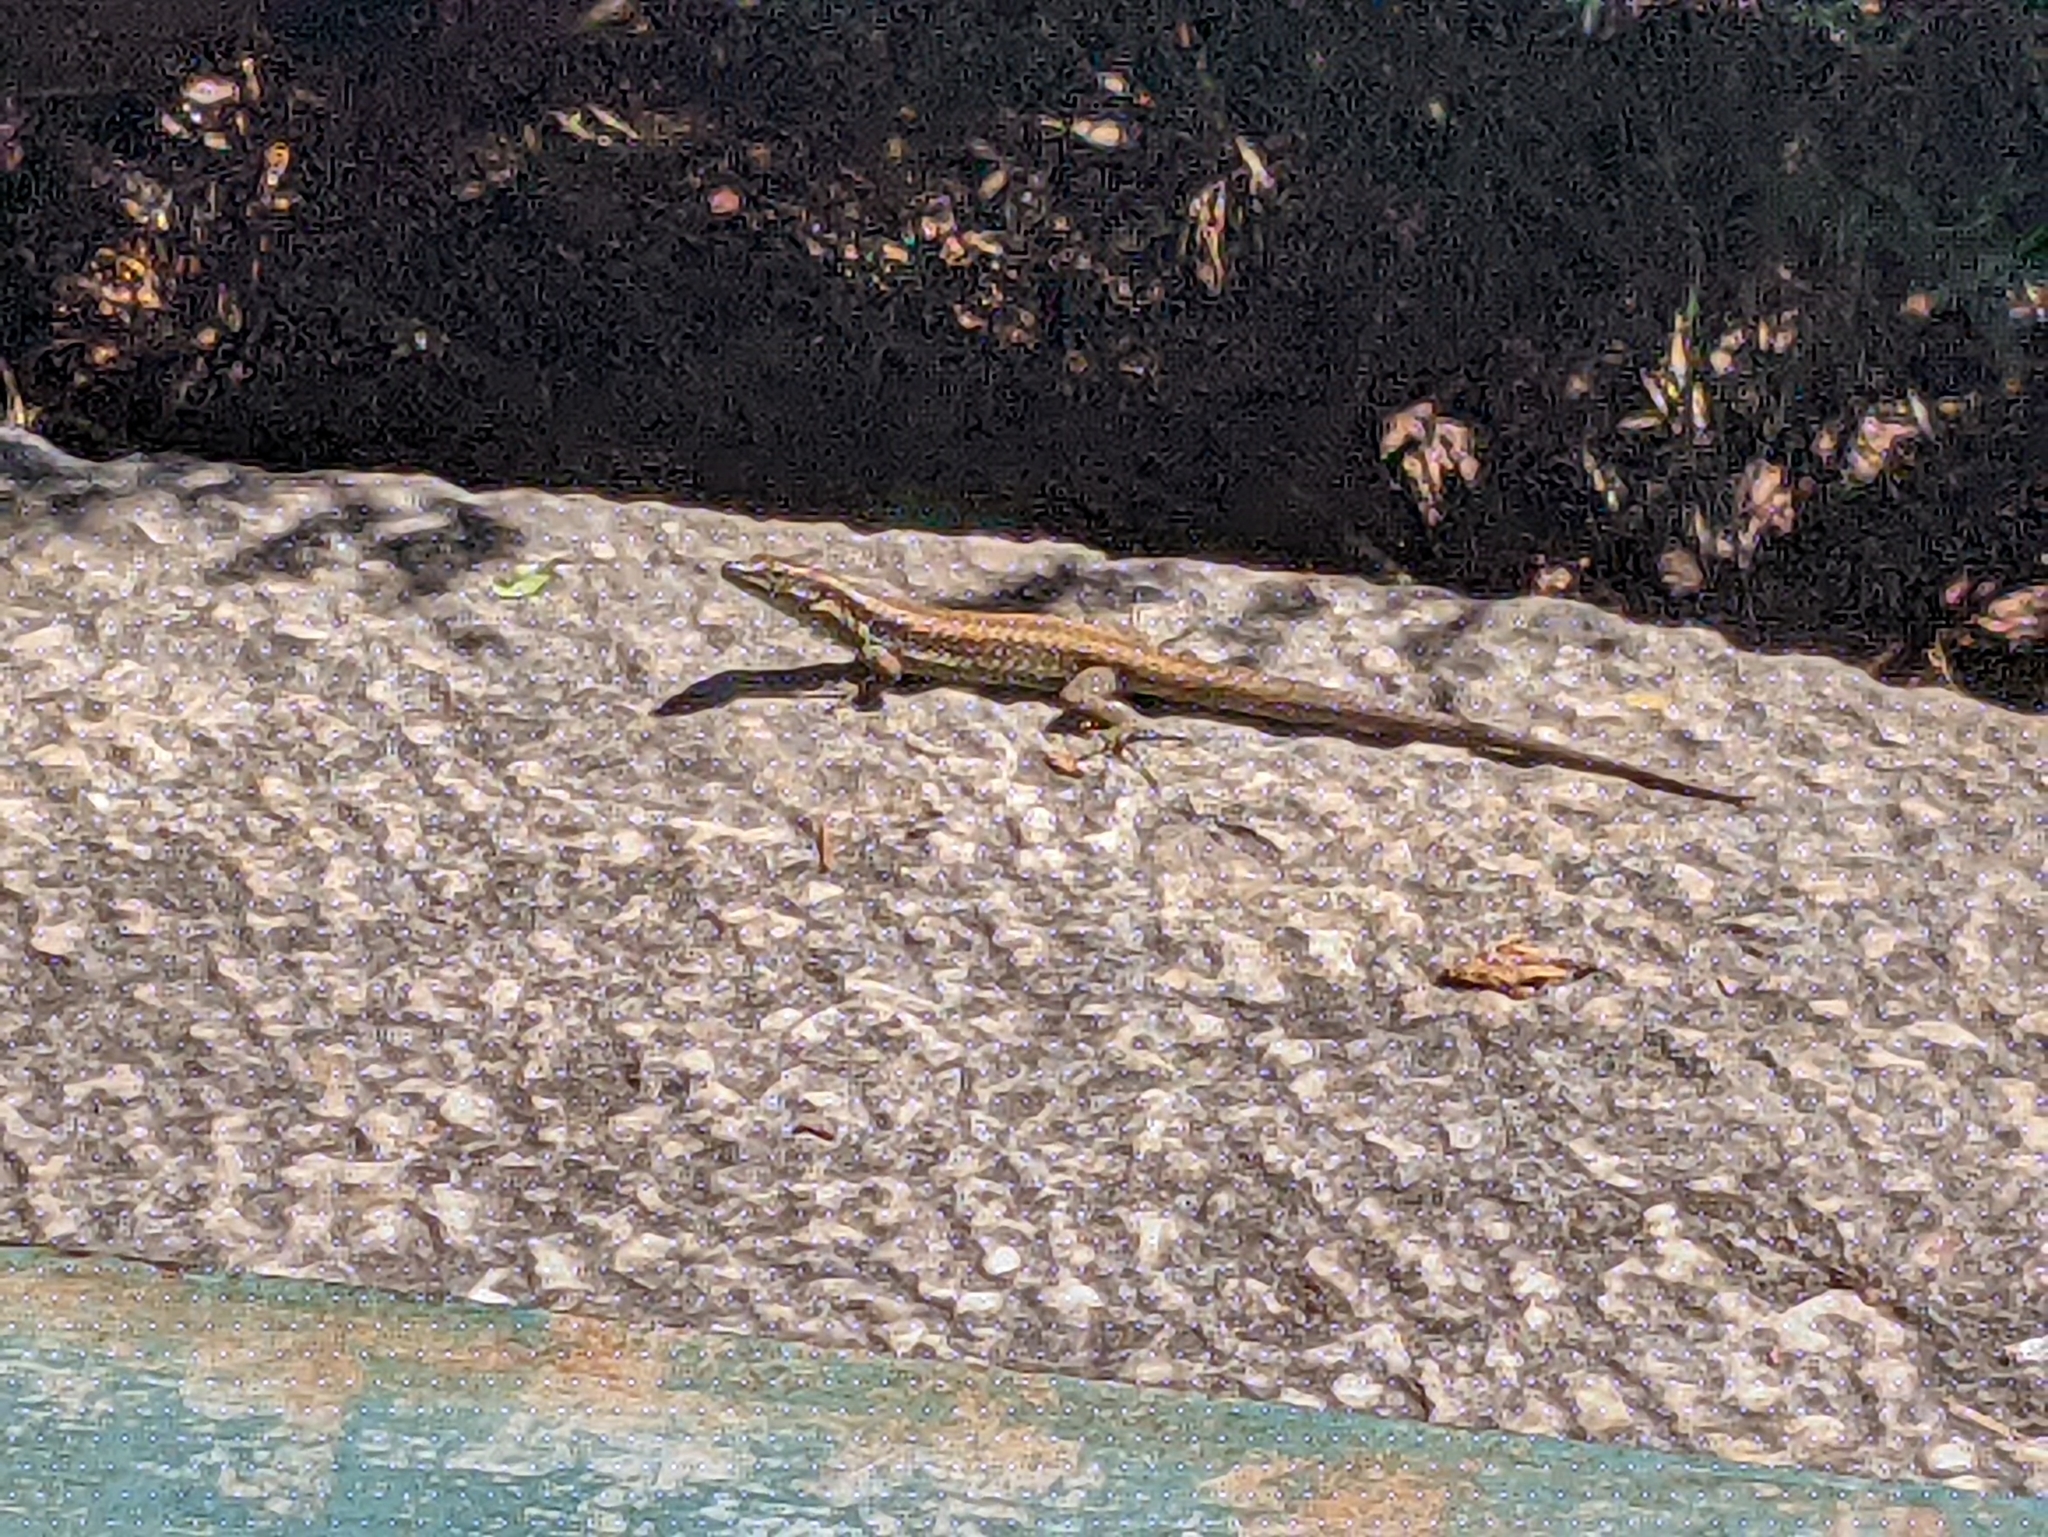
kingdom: Animalia
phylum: Chordata
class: Squamata
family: Lacertidae
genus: Teira
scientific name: Teira dugesii
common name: Madeira lizard
